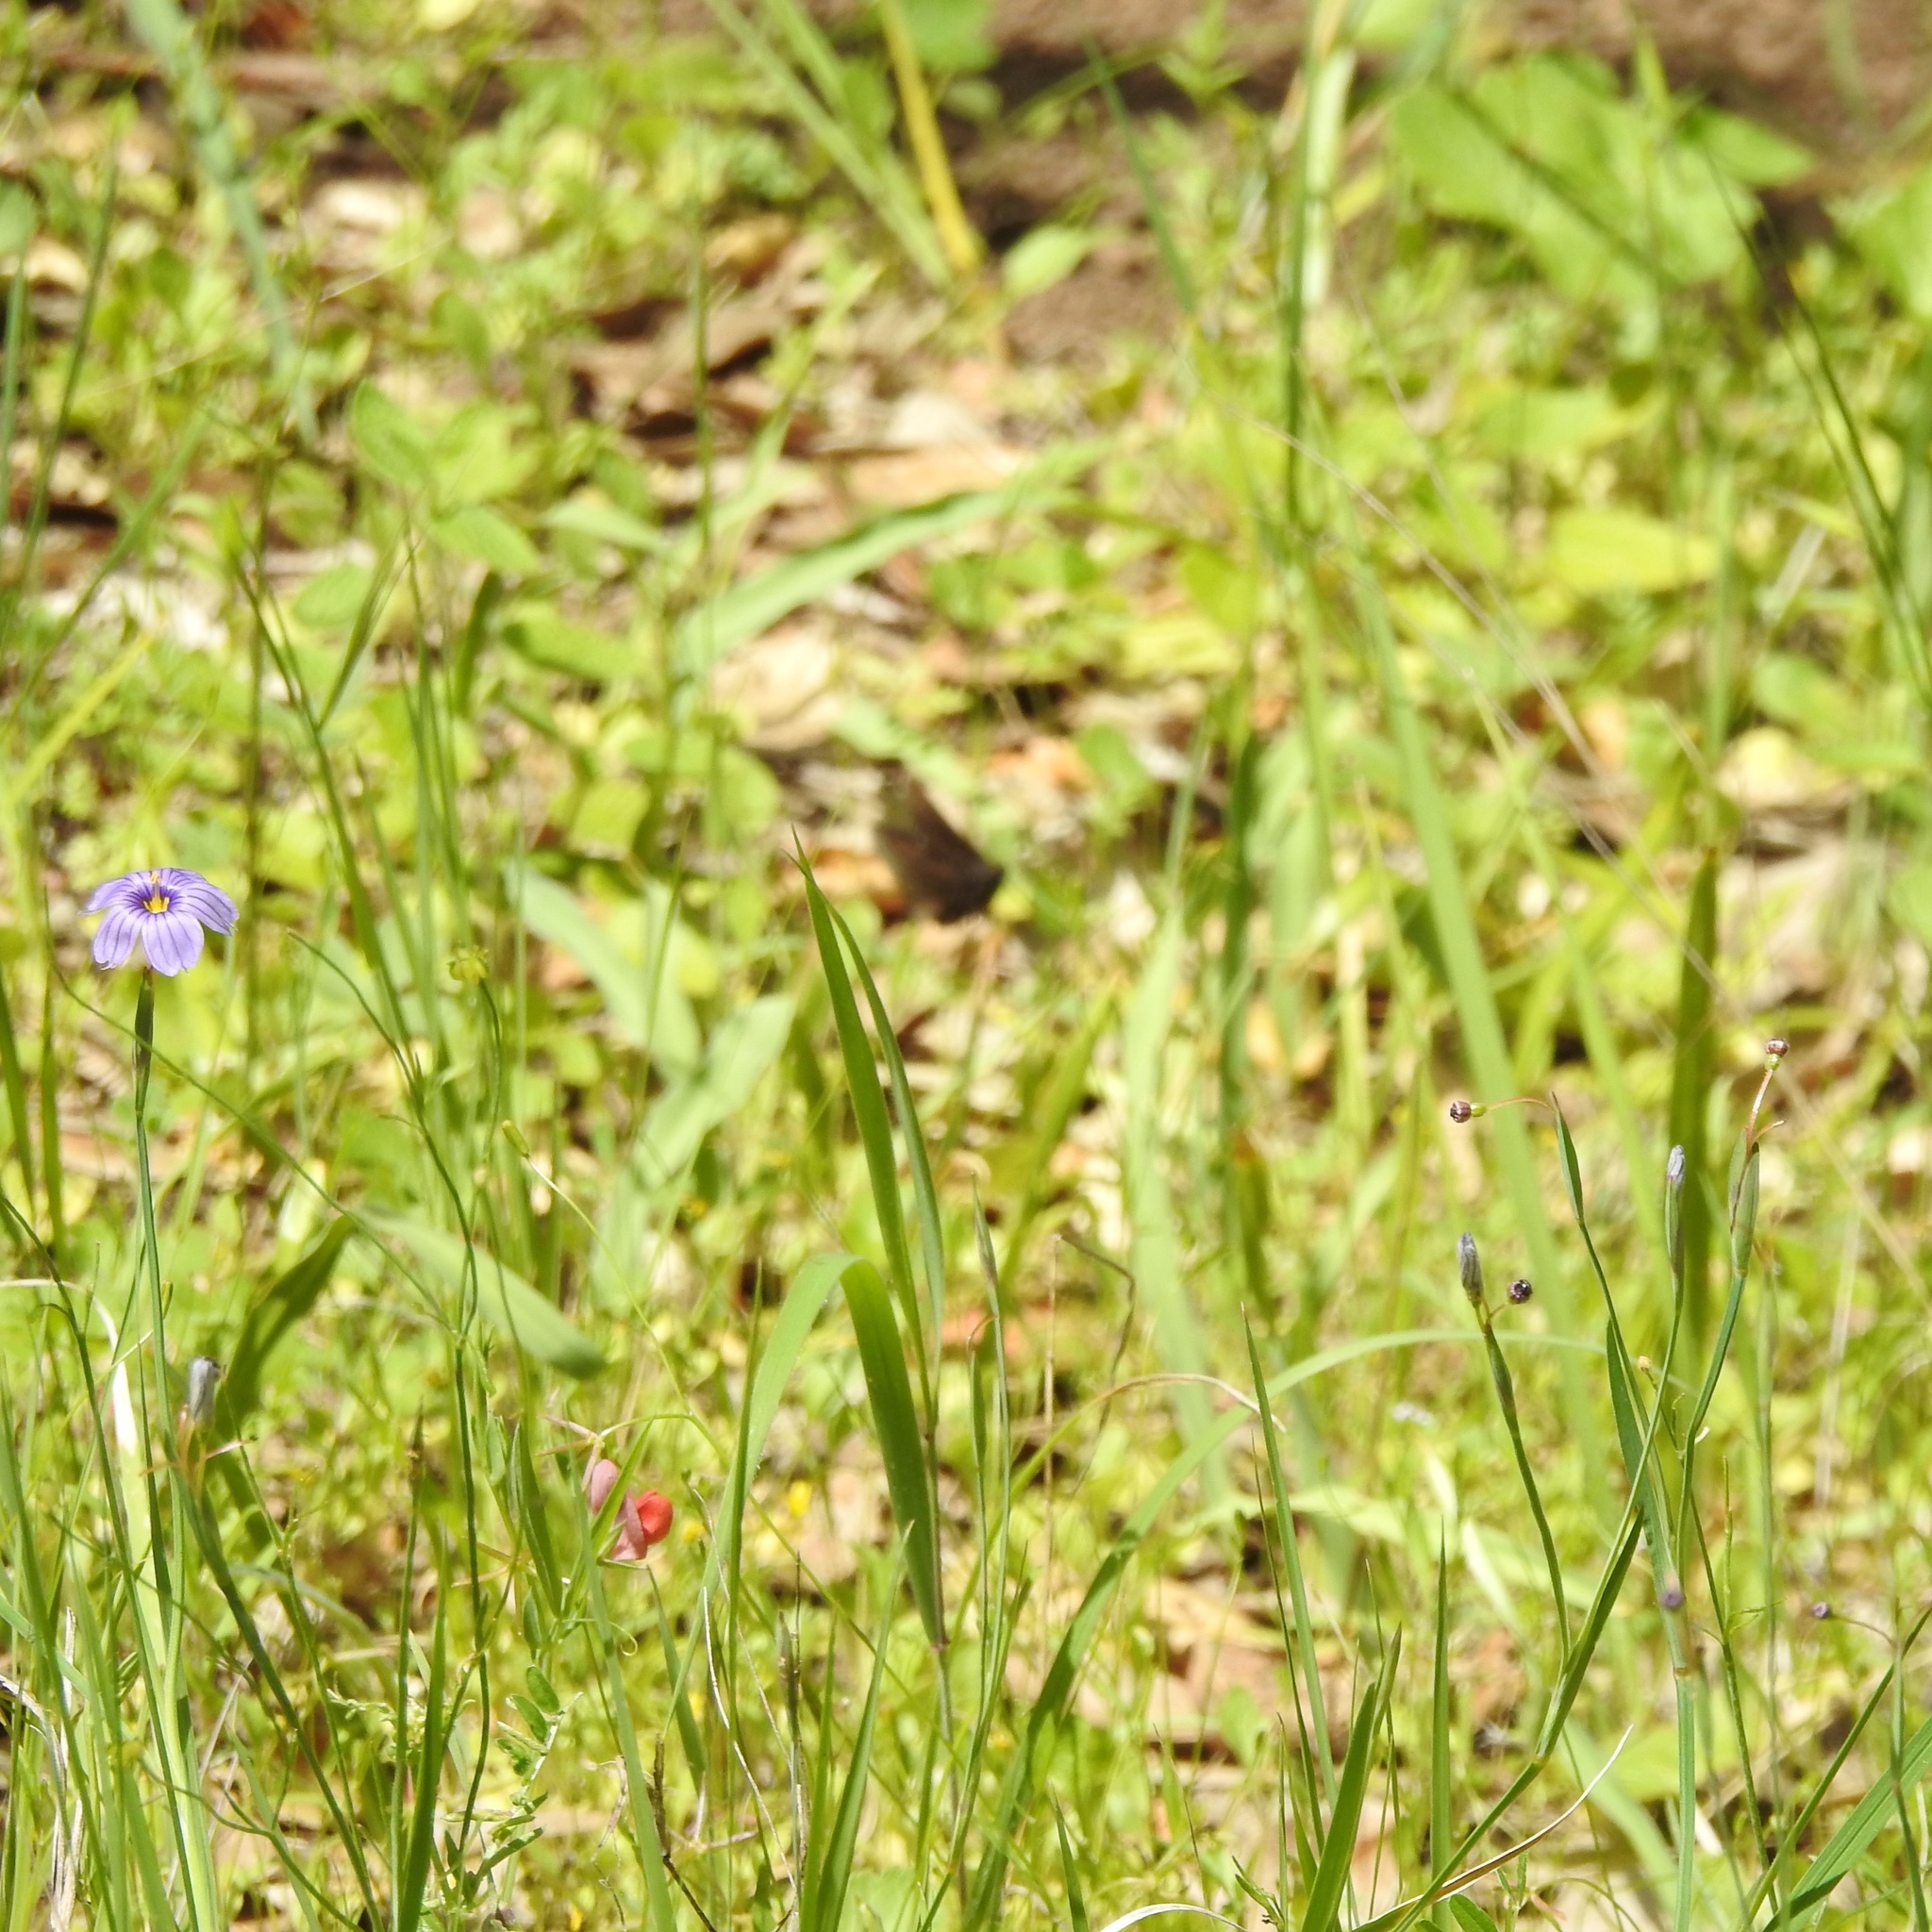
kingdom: Plantae
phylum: Tracheophyta
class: Liliopsida
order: Asparagales
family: Iridaceae
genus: Sisyrinchium
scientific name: Sisyrinchium bellum
